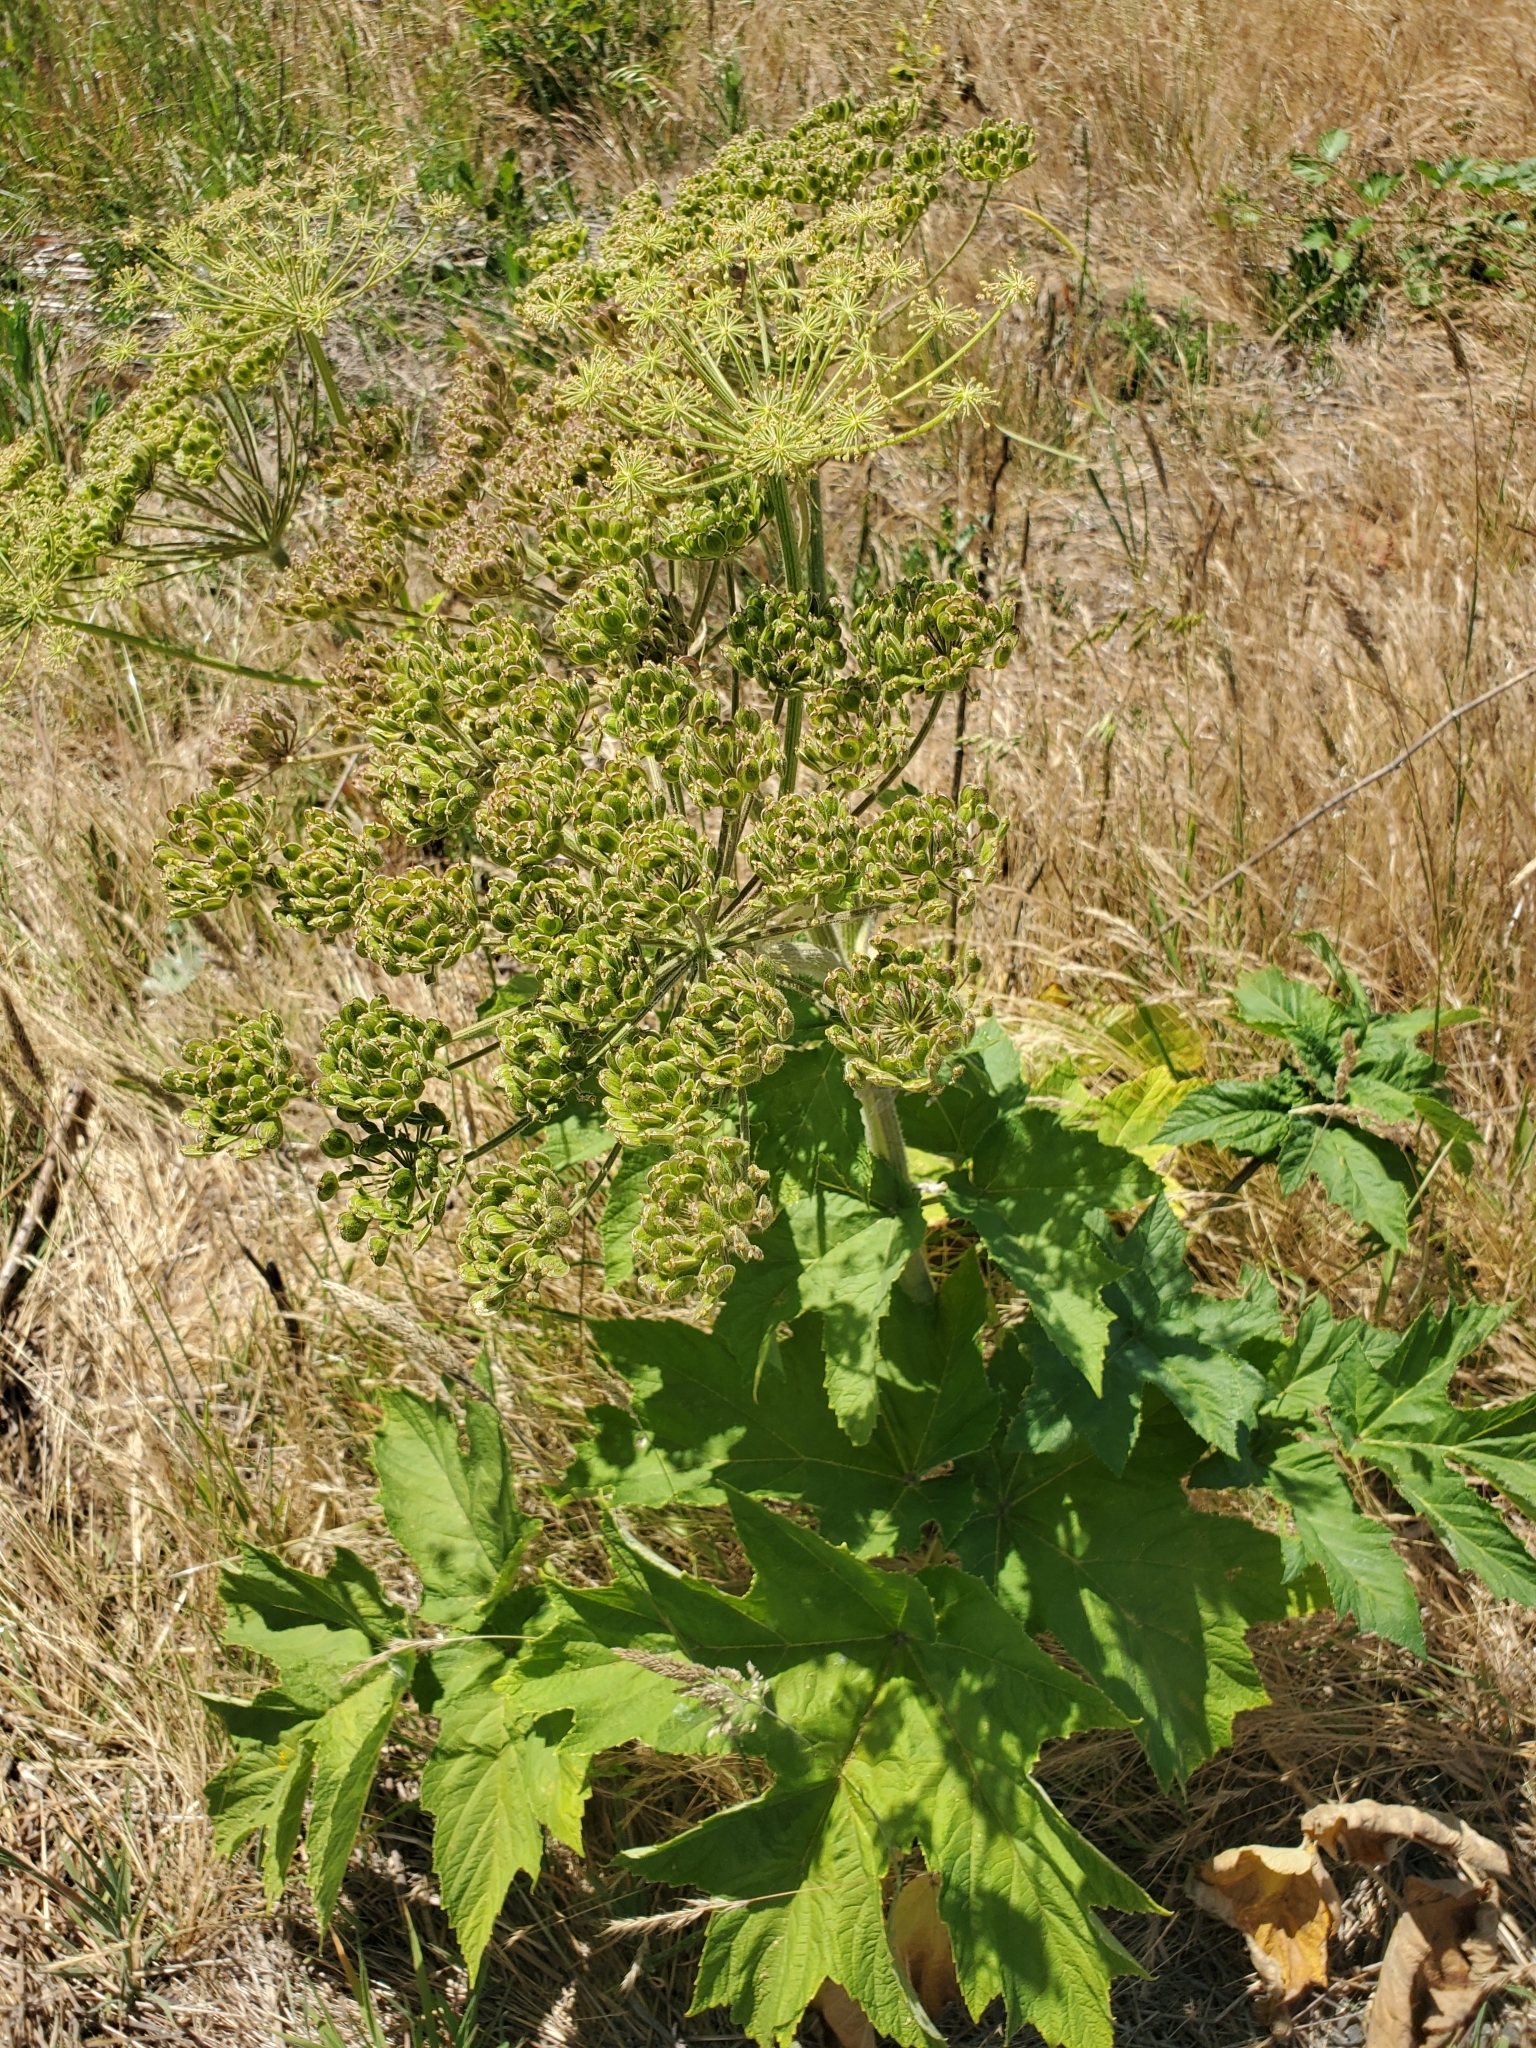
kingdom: Plantae
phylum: Tracheophyta
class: Magnoliopsida
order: Apiales
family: Apiaceae
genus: Heracleum
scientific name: Heracleum maximum
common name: American cow parsnip
